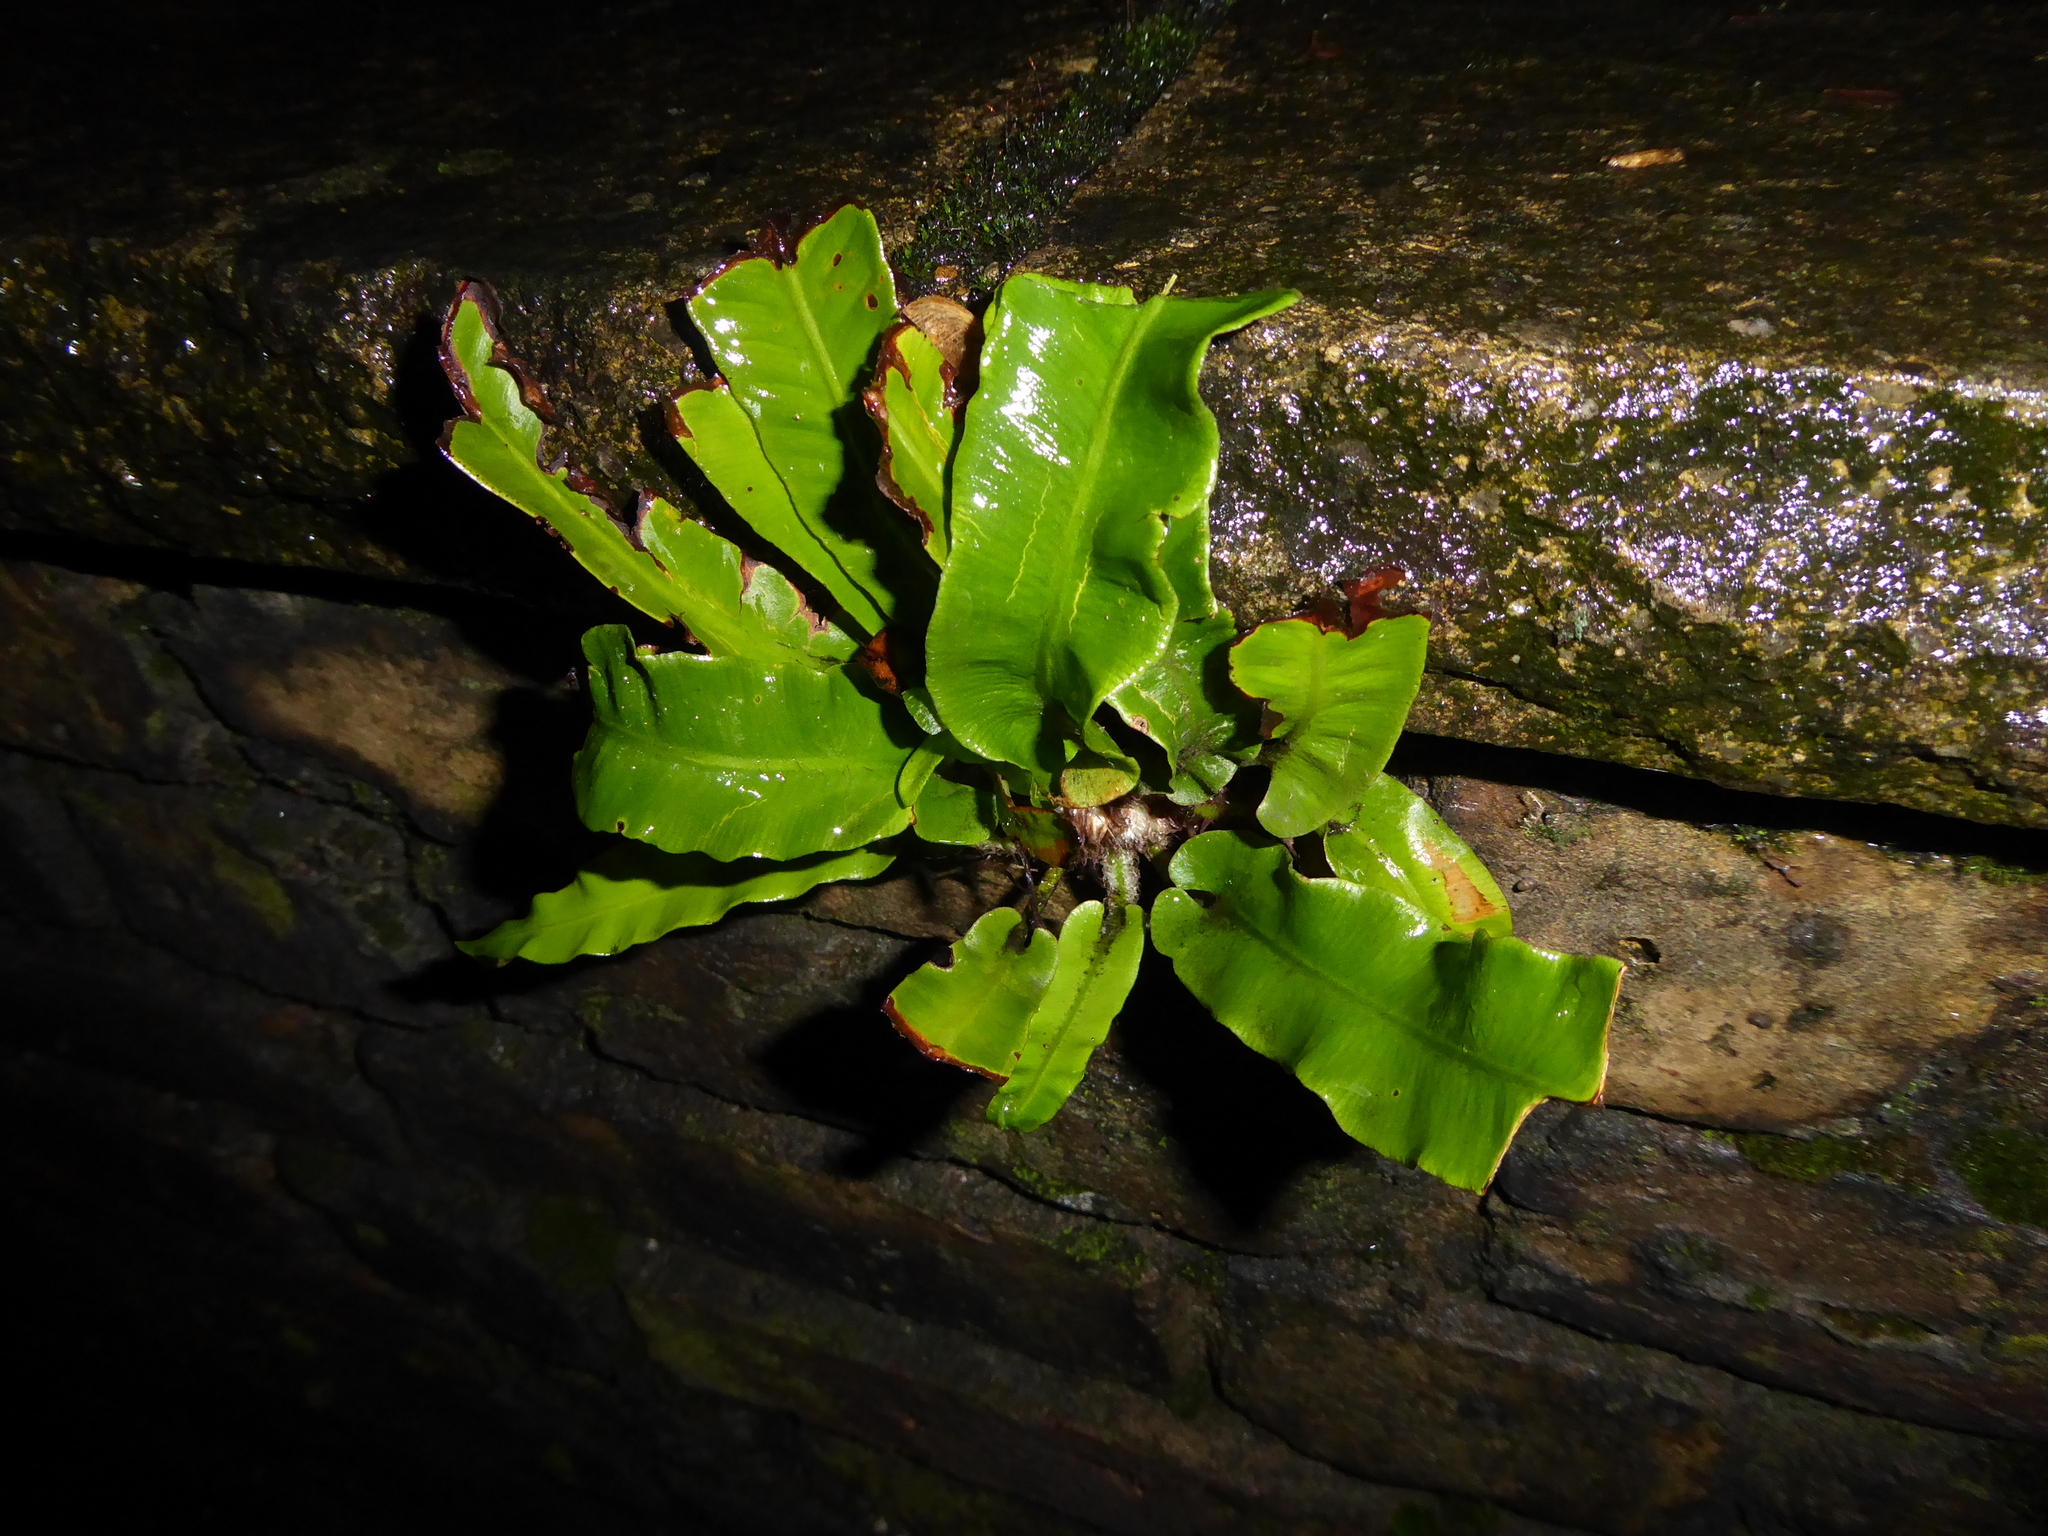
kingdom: Plantae
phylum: Tracheophyta
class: Polypodiopsida
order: Polypodiales
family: Aspleniaceae
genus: Asplenium
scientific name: Asplenium scolopendrium
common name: Hart's-tongue fern
